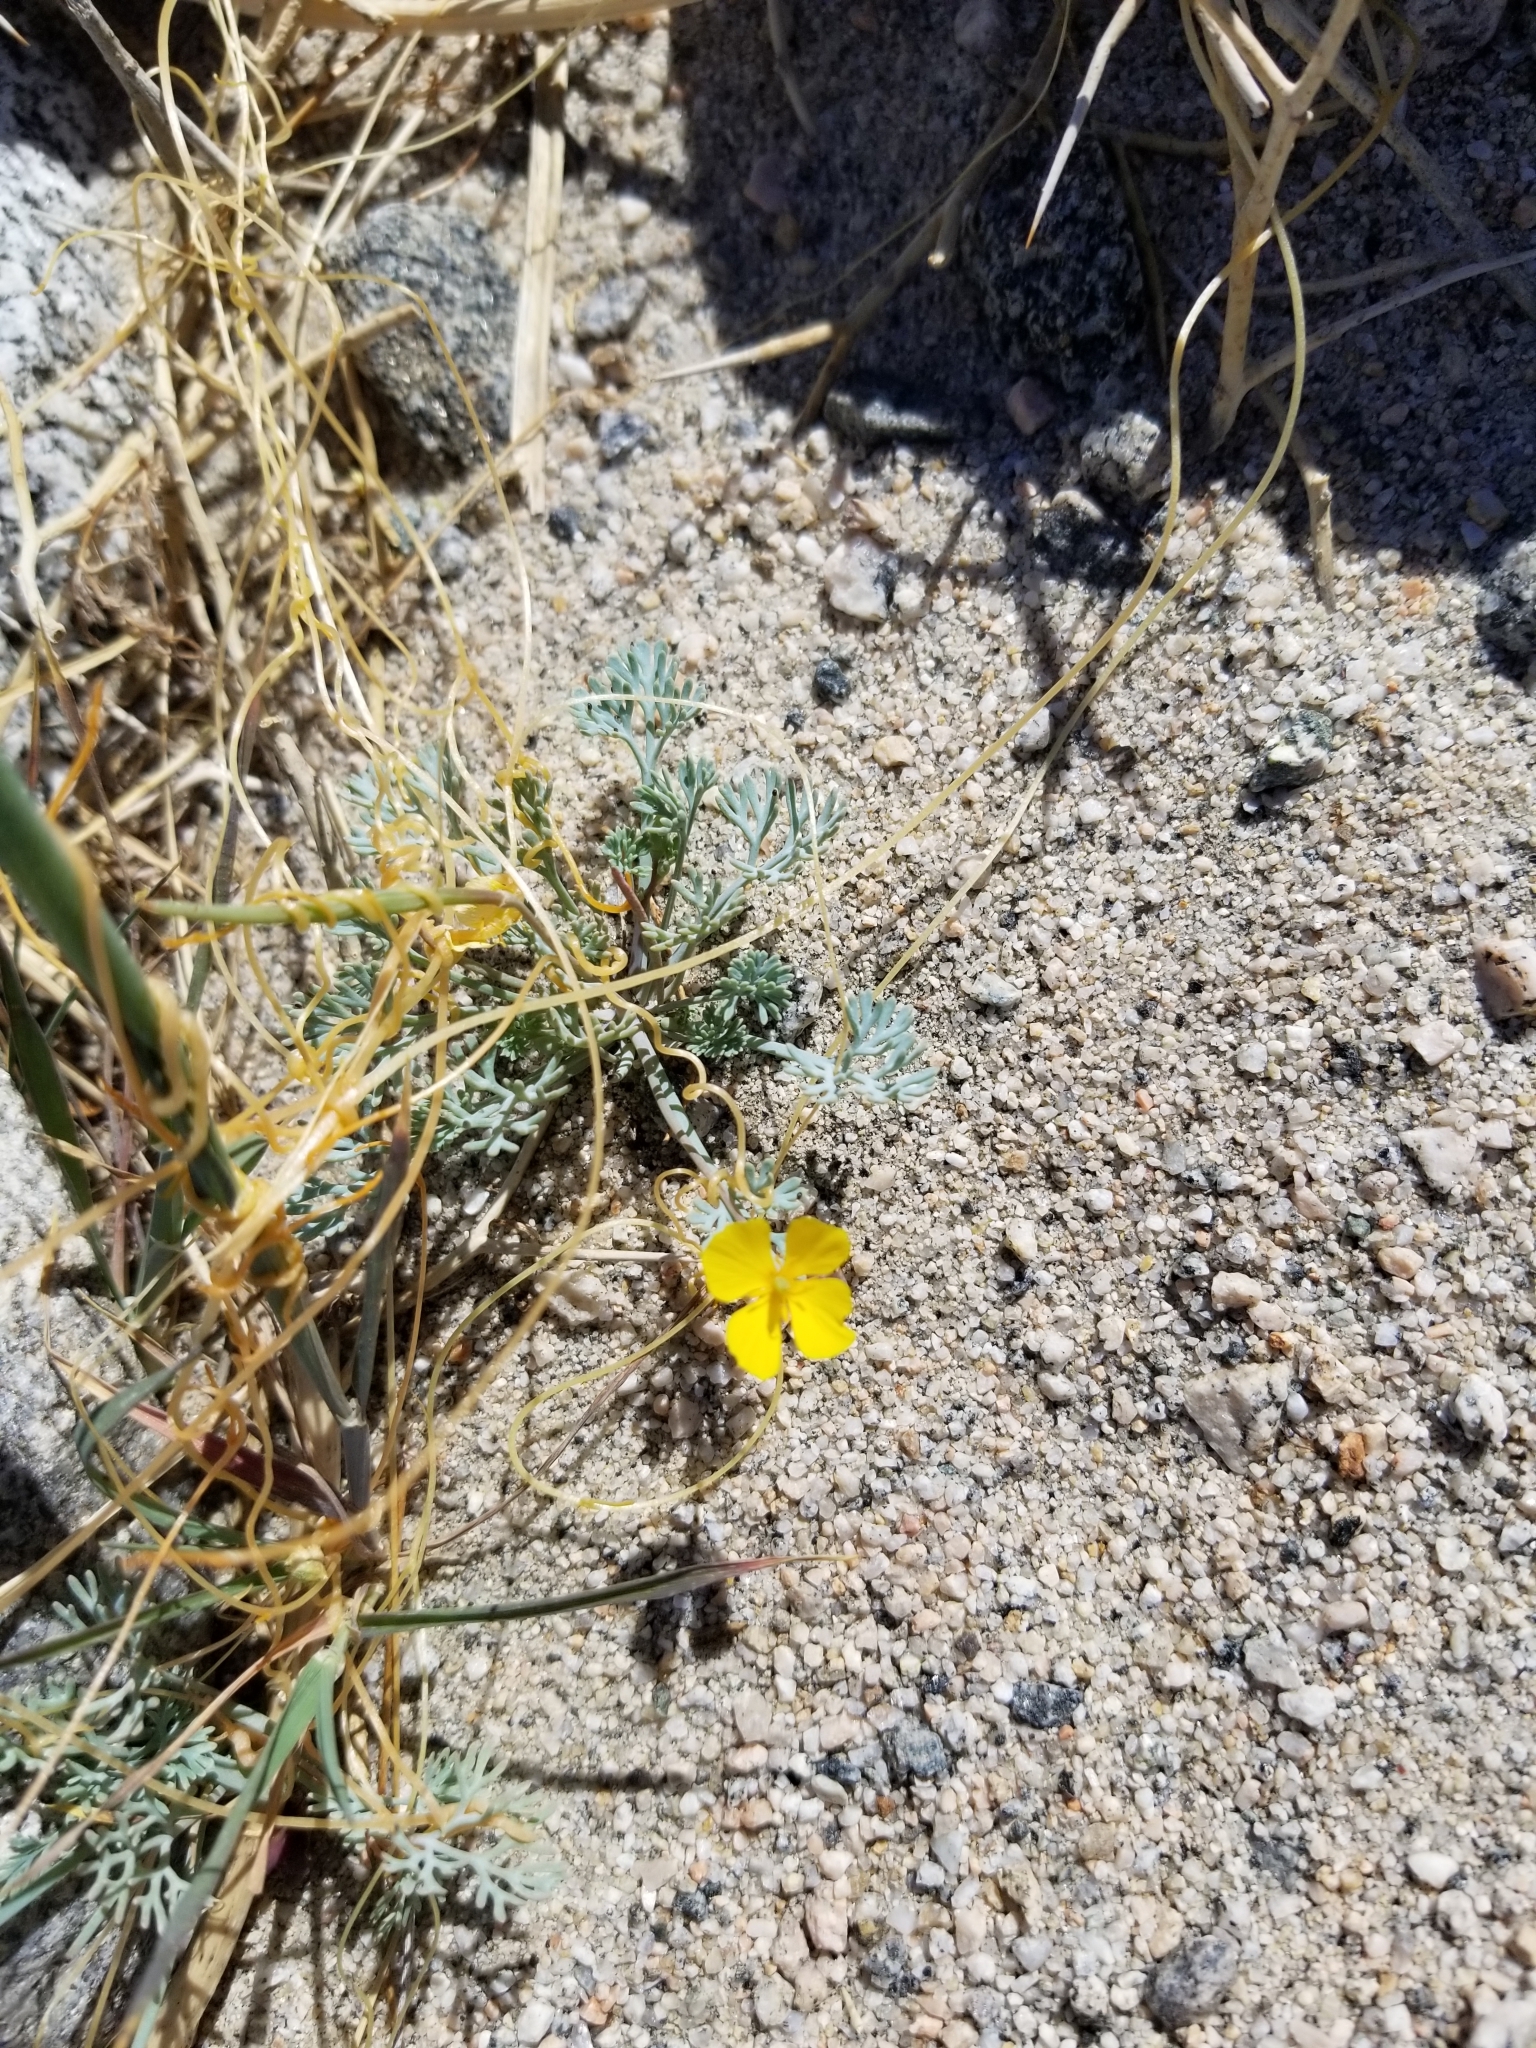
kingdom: Plantae
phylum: Tracheophyta
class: Magnoliopsida
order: Ranunculales
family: Papaveraceae
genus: Eschscholzia
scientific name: Eschscholzia minutiflora
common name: Small-flower california-poppy
